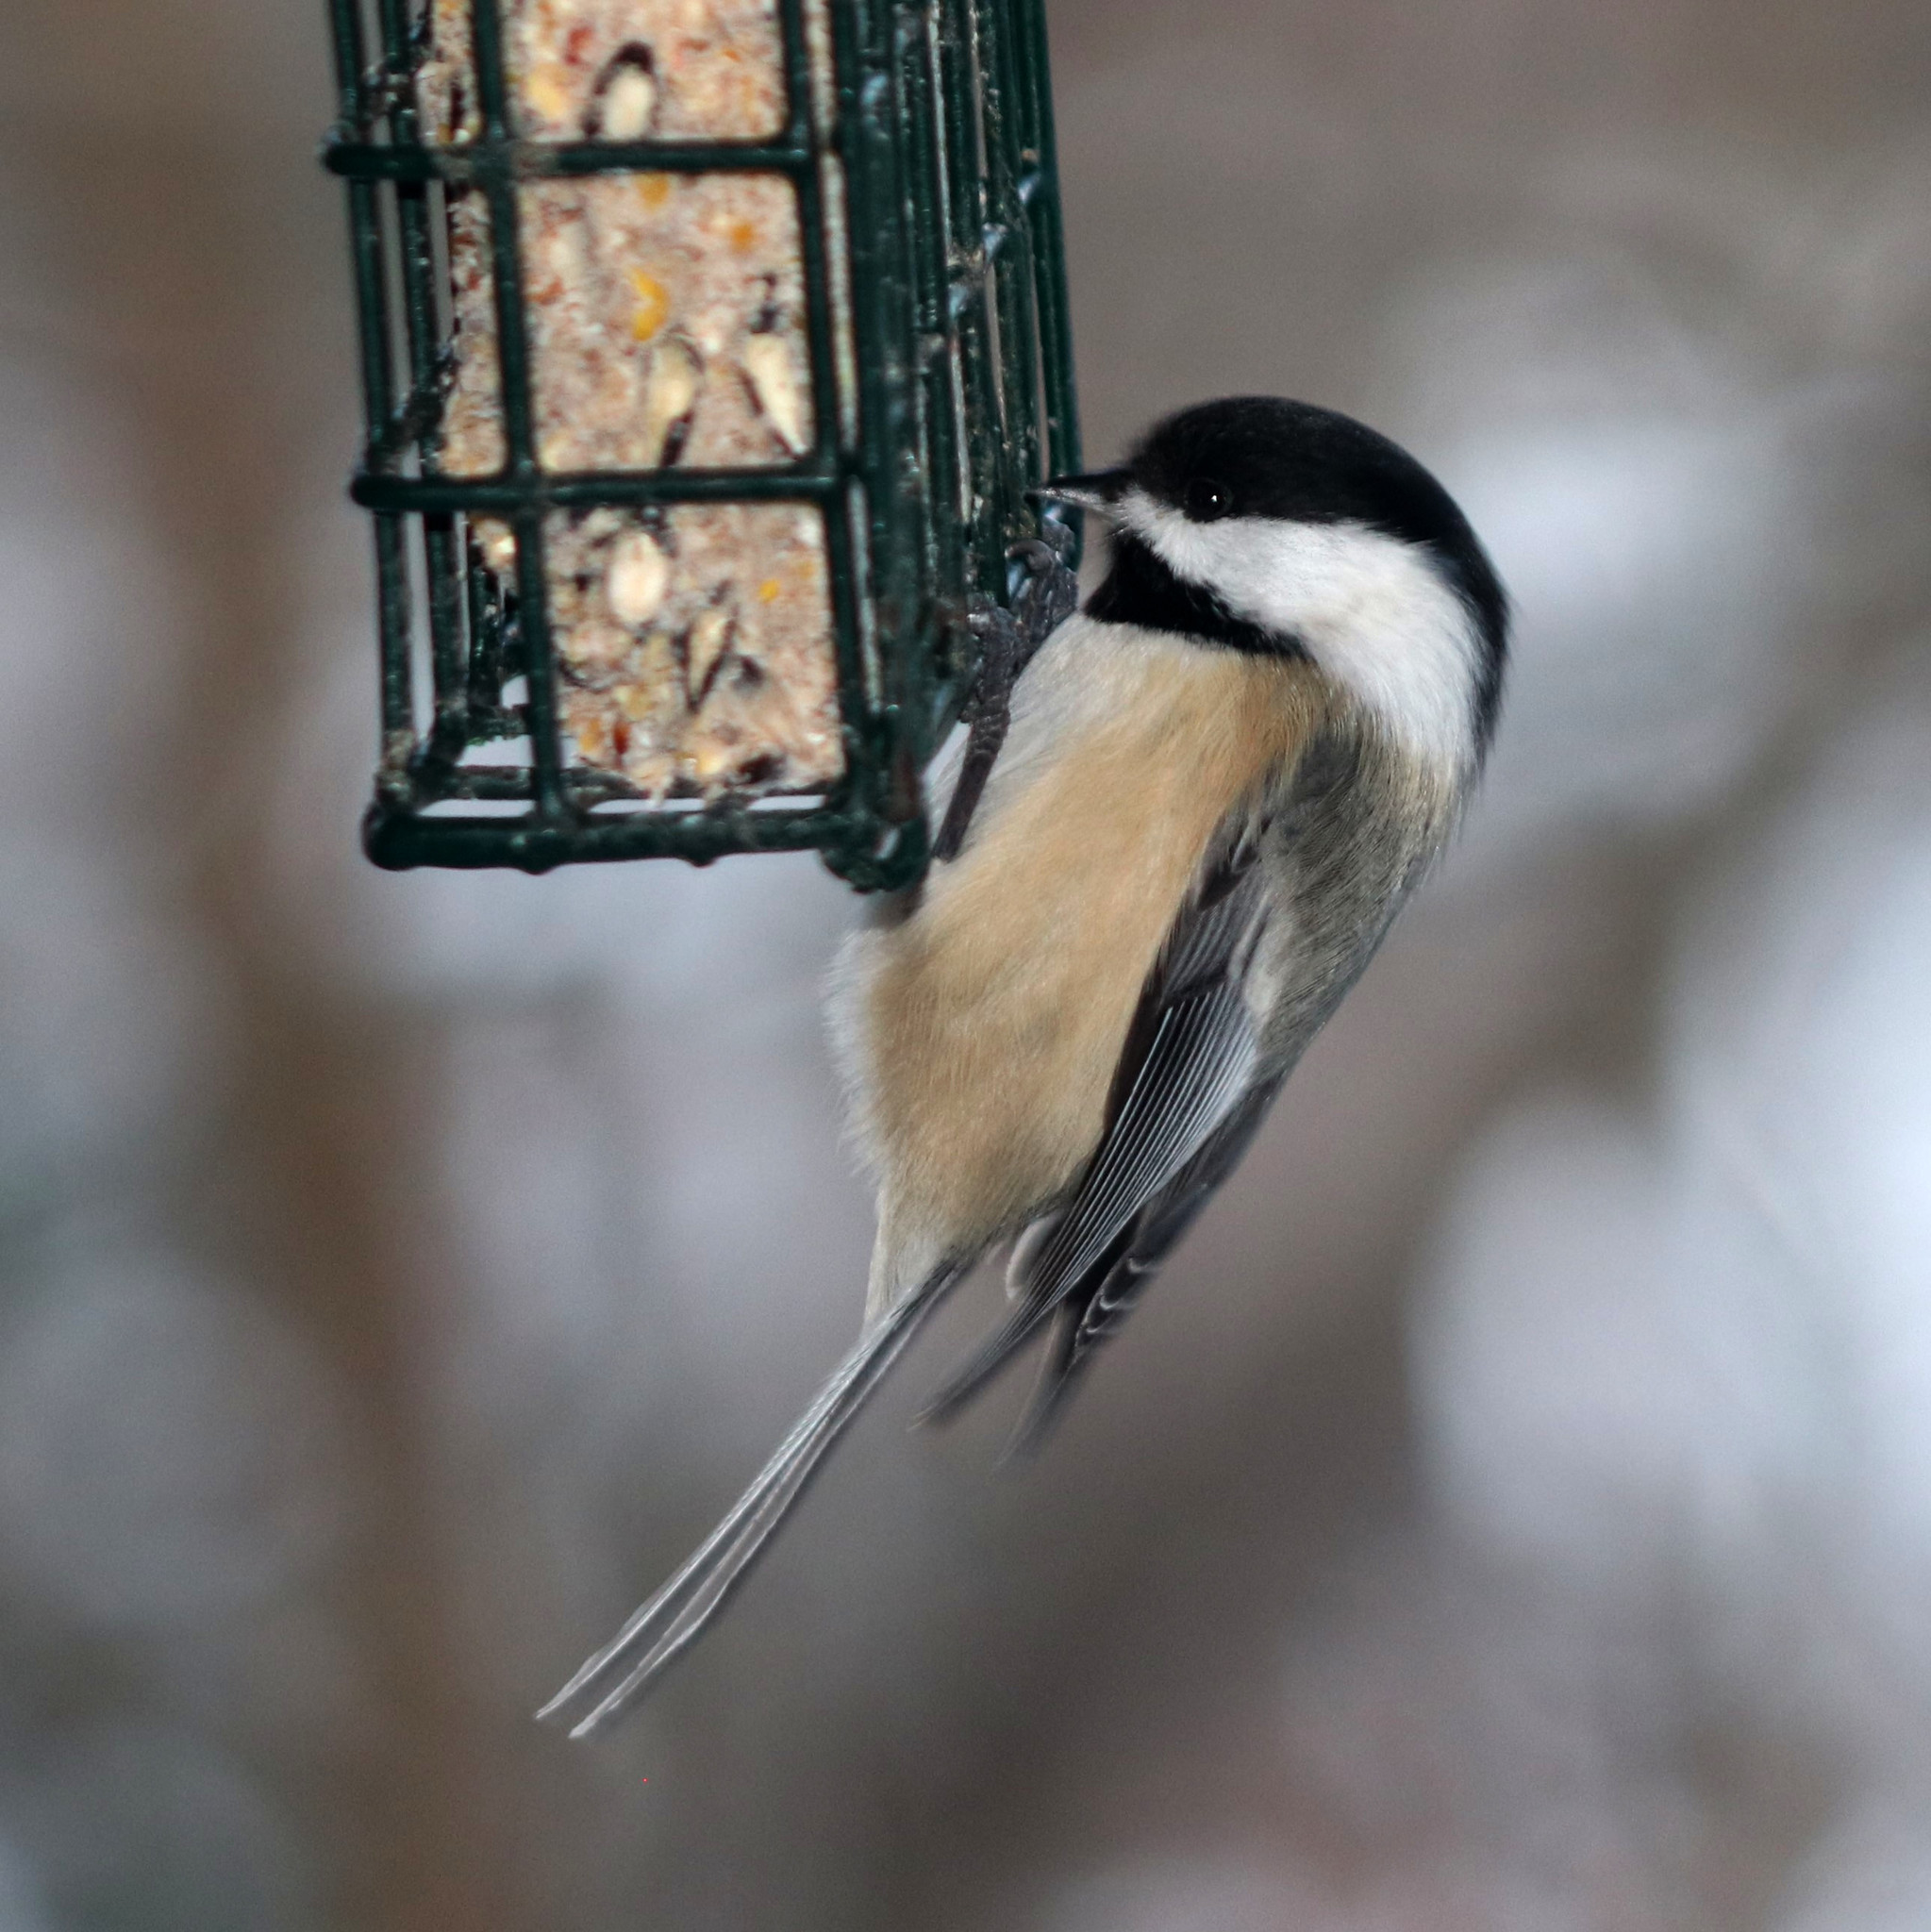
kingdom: Animalia
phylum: Chordata
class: Aves
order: Passeriformes
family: Paridae
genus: Poecile
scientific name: Poecile atricapillus
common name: Black-capped chickadee
